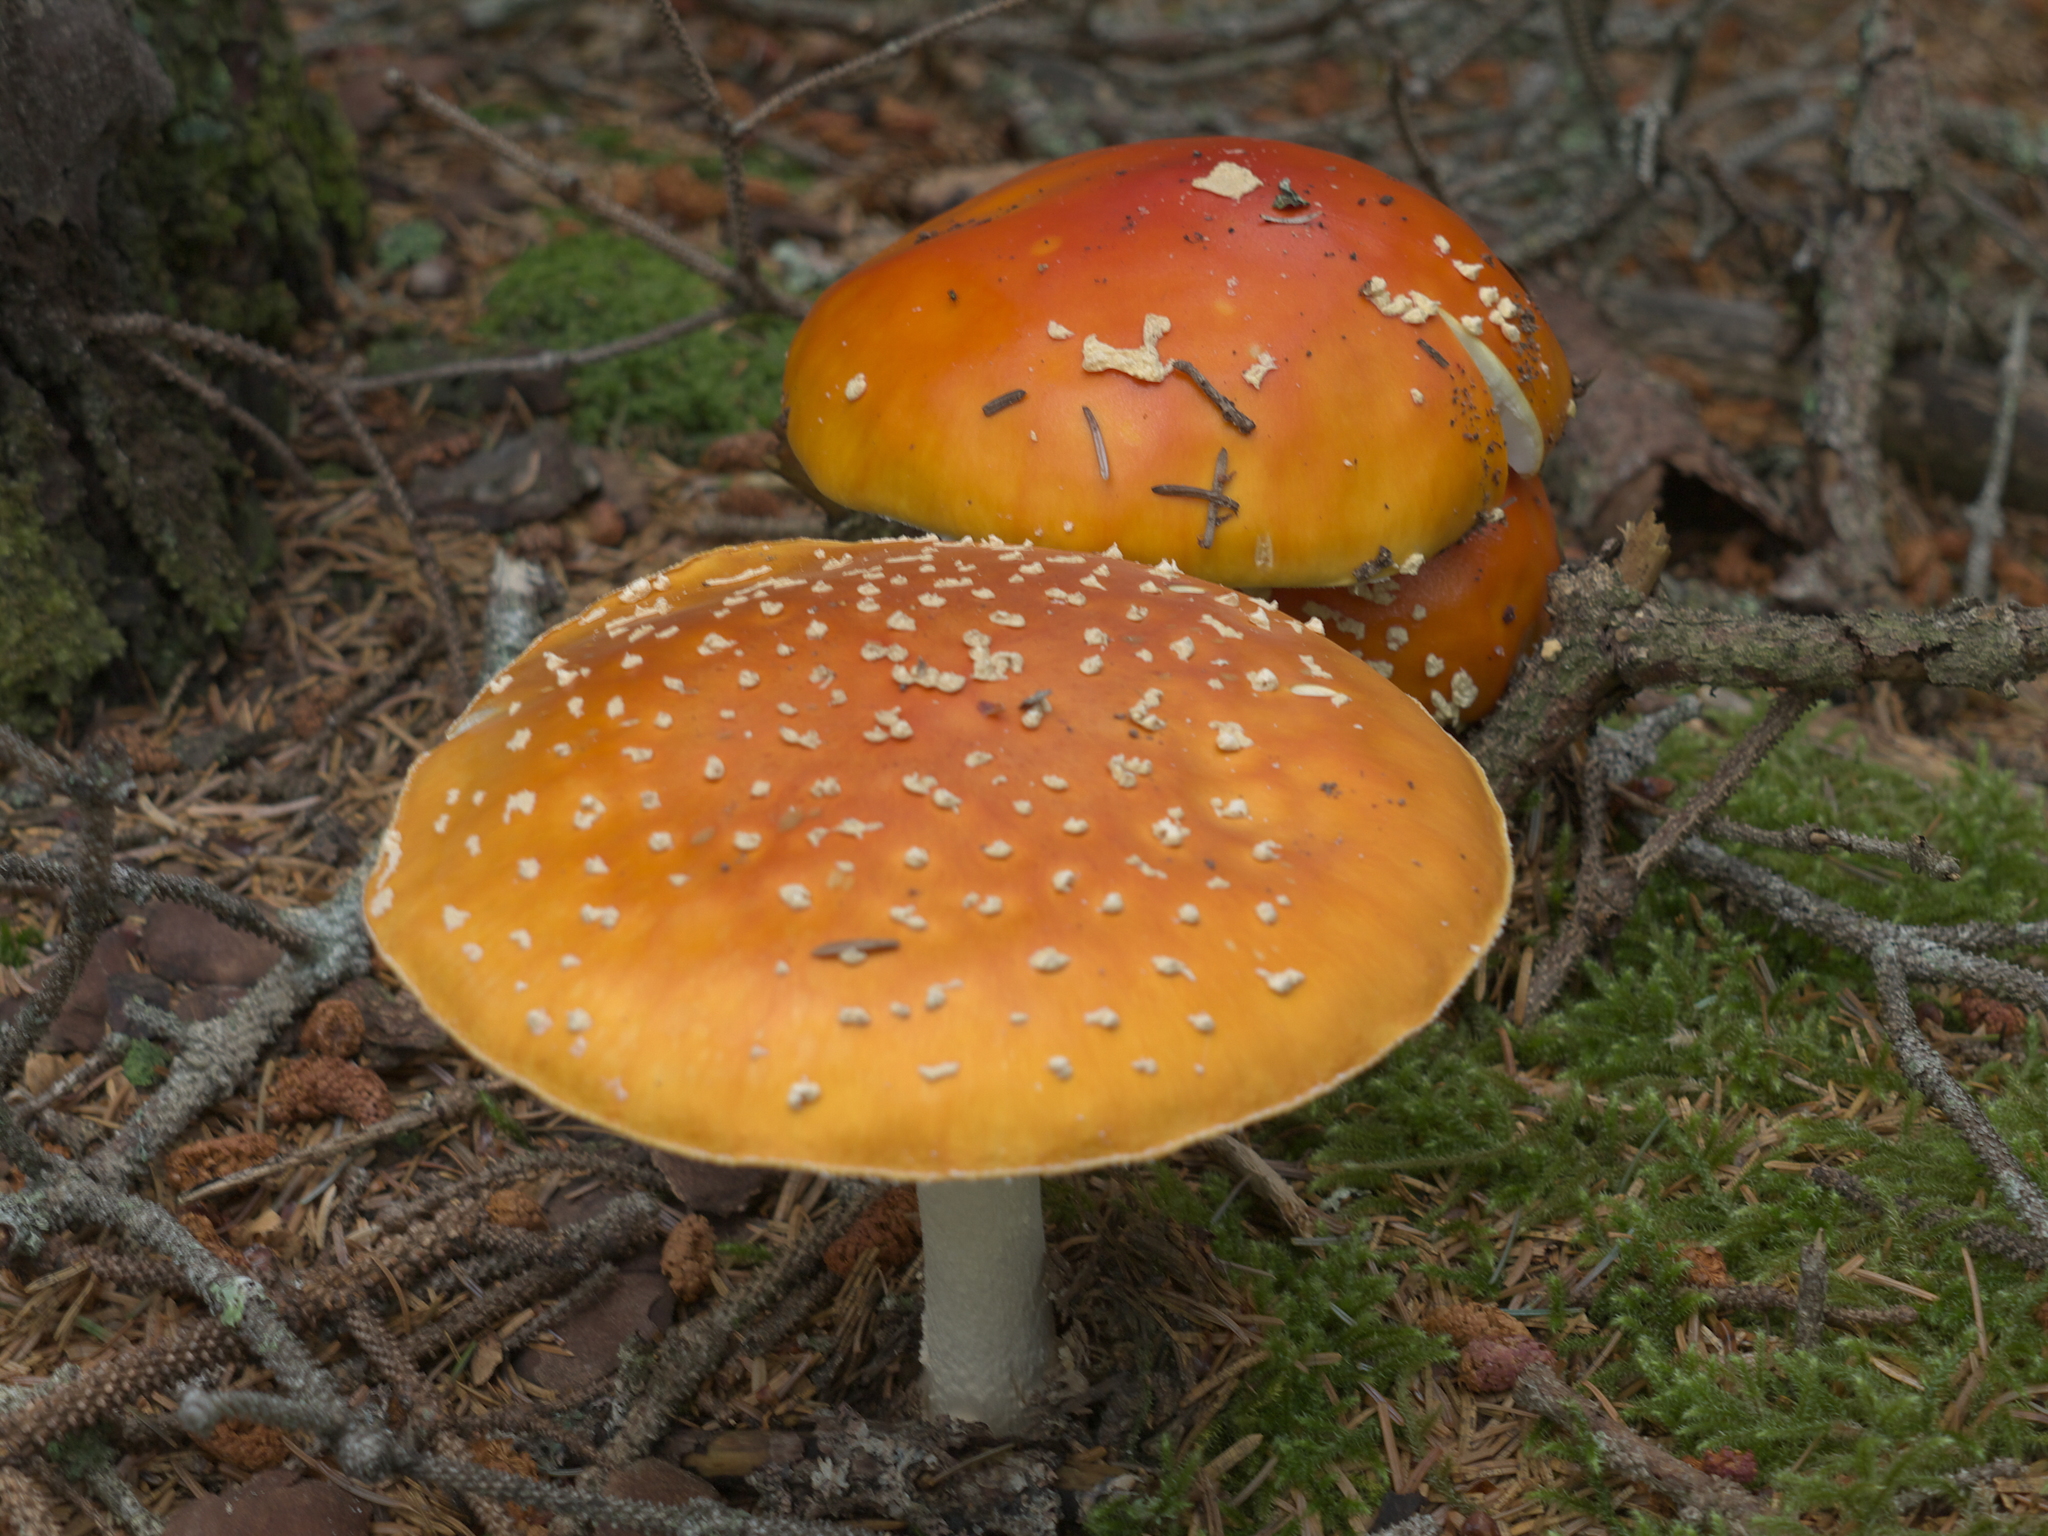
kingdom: Fungi
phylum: Basidiomycota
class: Agaricomycetes
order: Agaricales
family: Amanitaceae
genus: Amanita
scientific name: Amanita muscaria
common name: Fly agaric
